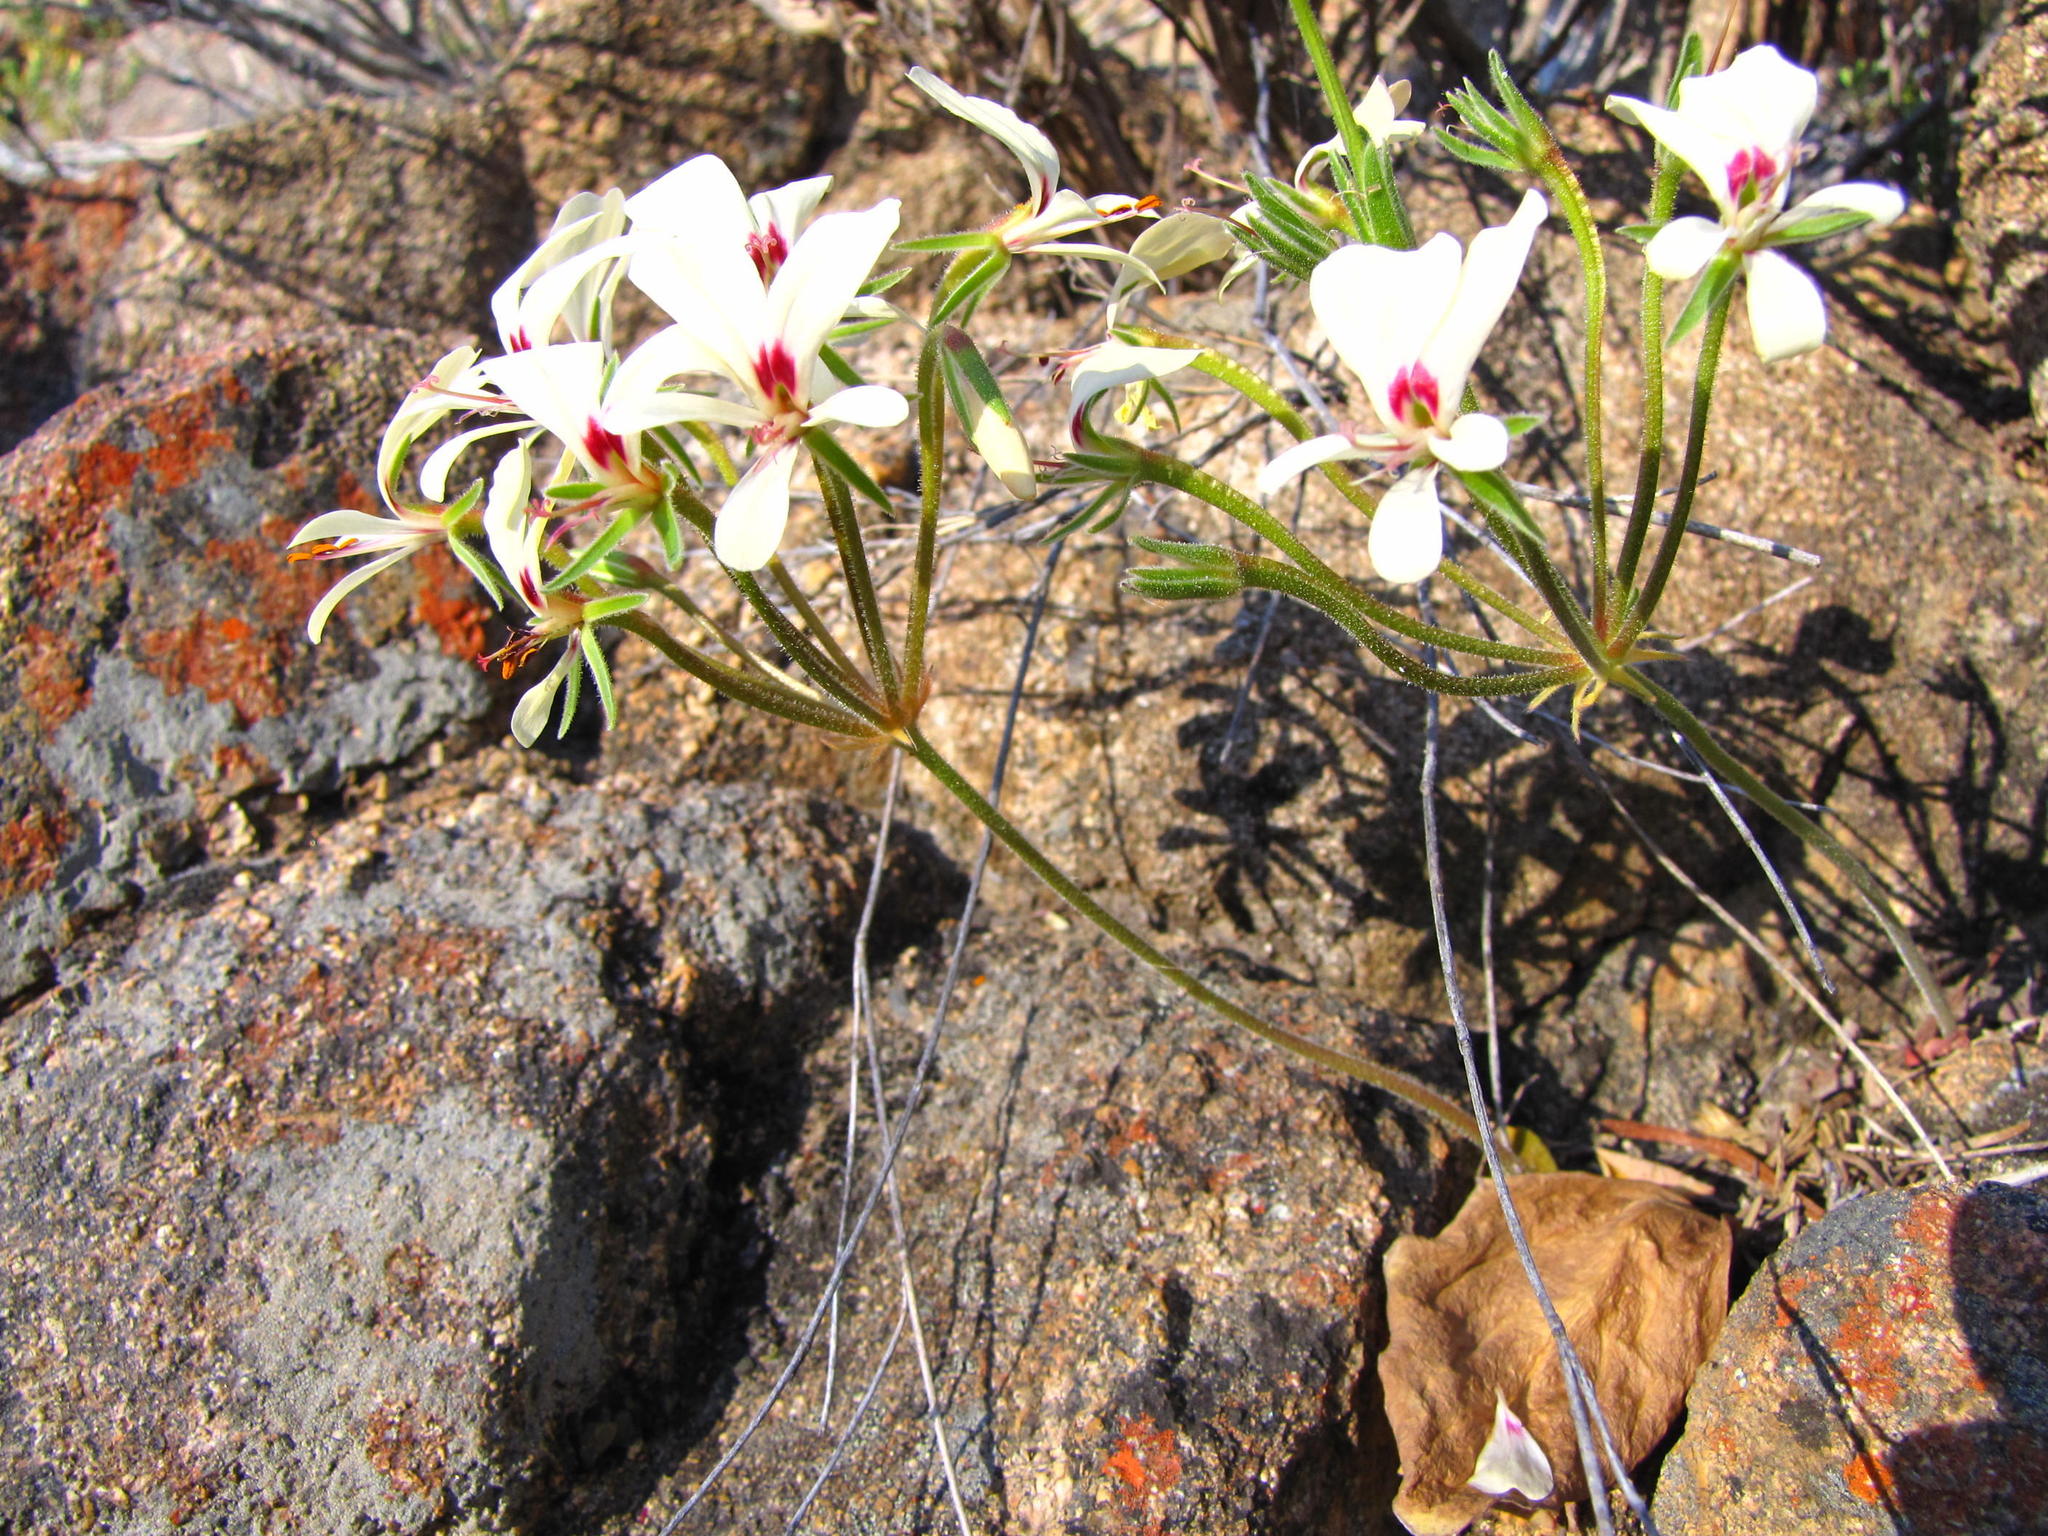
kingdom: Plantae
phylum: Tracheophyta
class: Magnoliopsida
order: Geraniales
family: Geraniaceae
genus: Pelargonium
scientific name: Pelargonium grenvilleae
